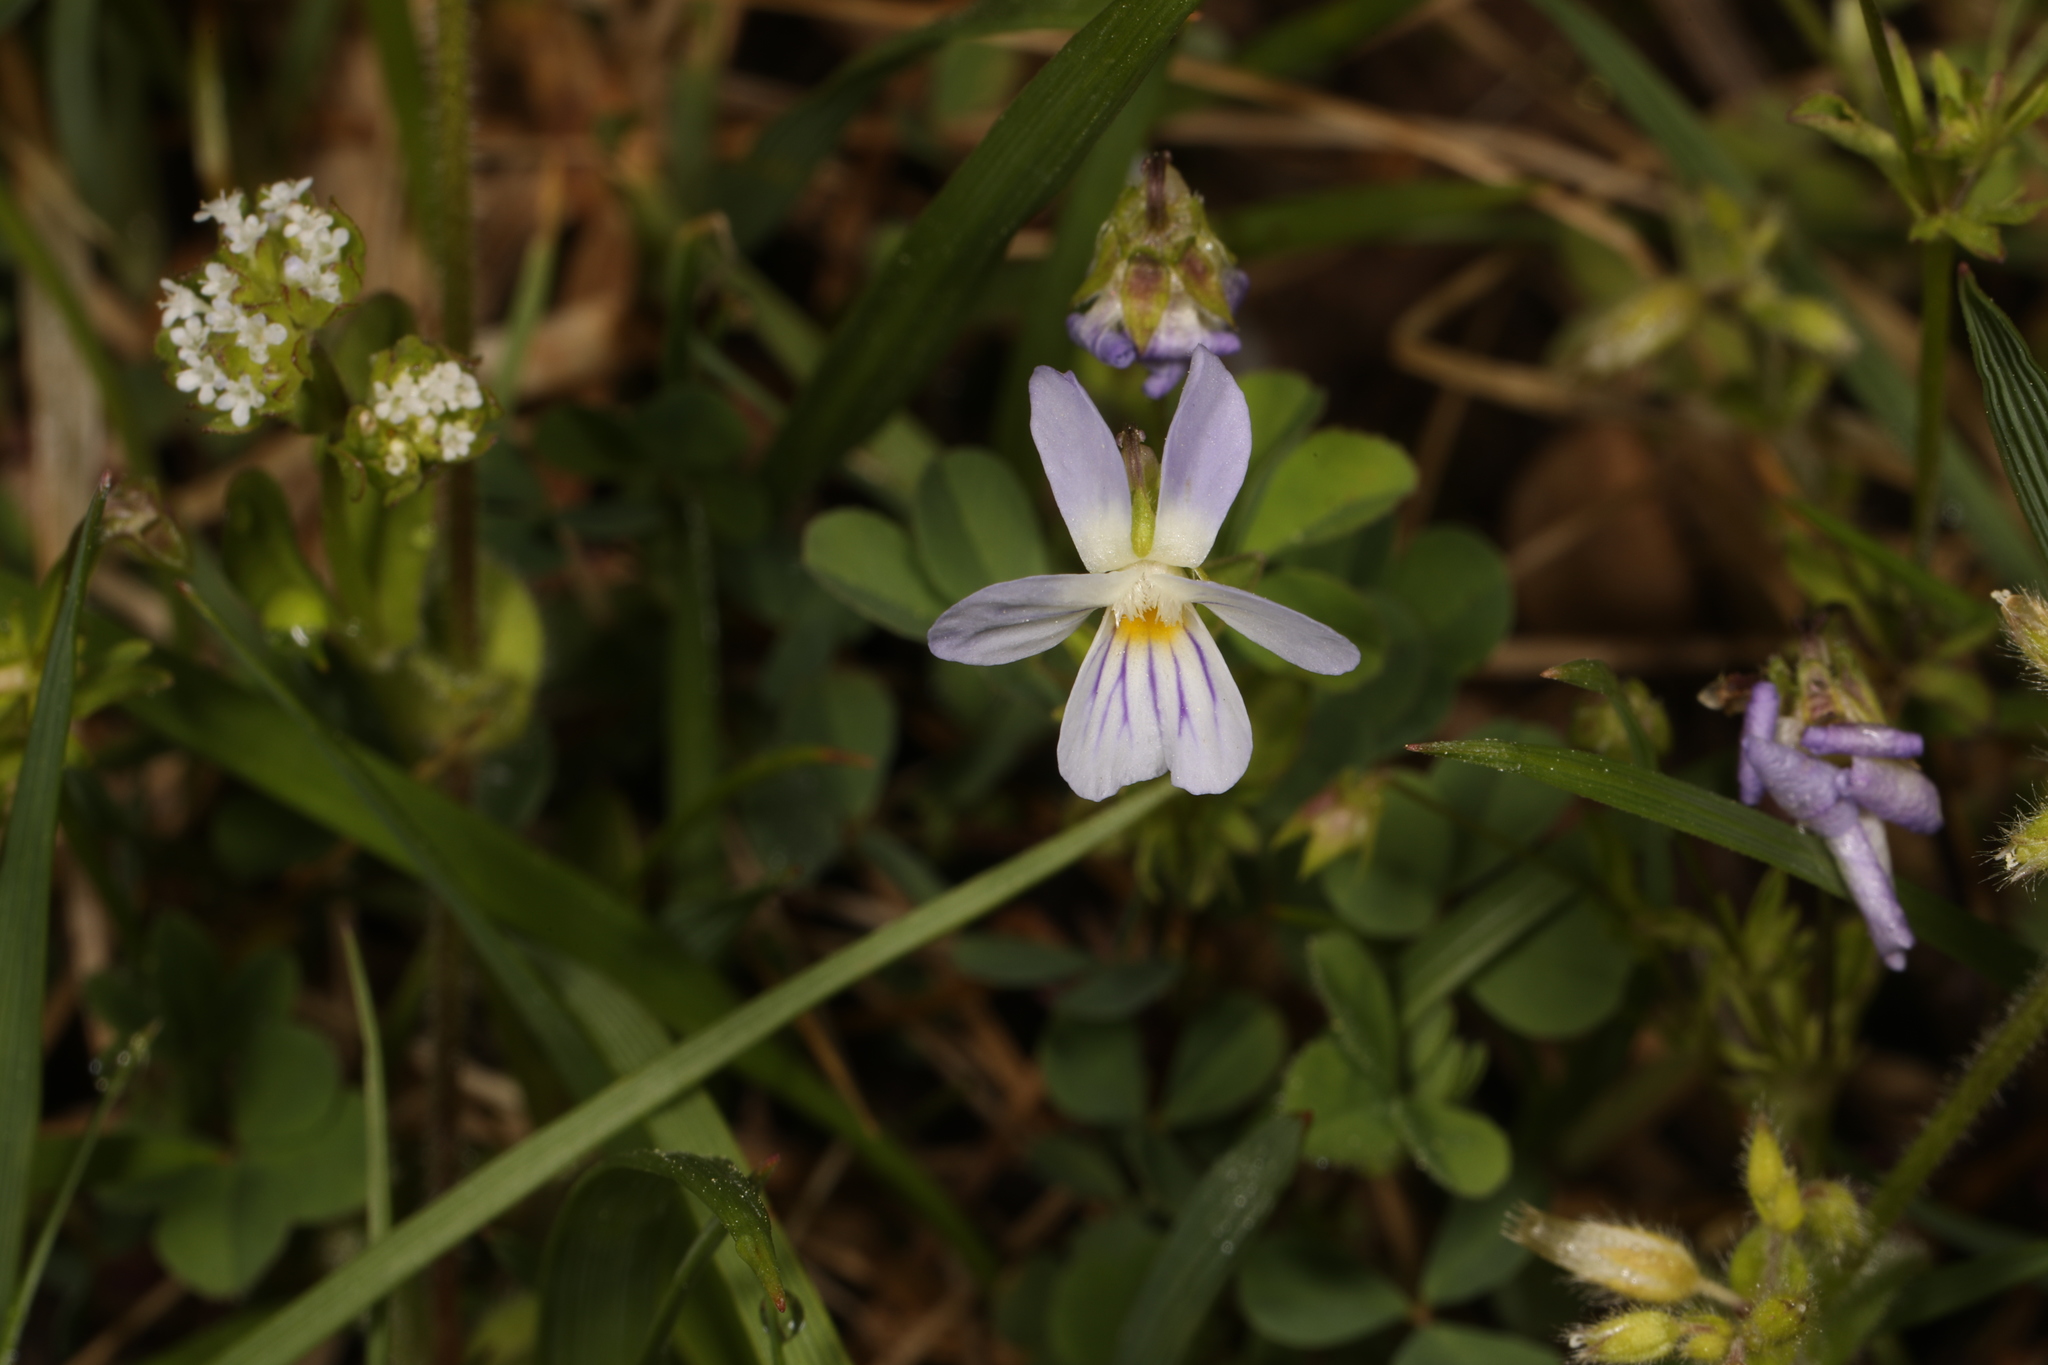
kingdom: Plantae
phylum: Tracheophyta
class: Magnoliopsida
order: Malpighiales
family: Violaceae
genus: Viola
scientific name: Viola rafinesquei
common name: American field pansy
